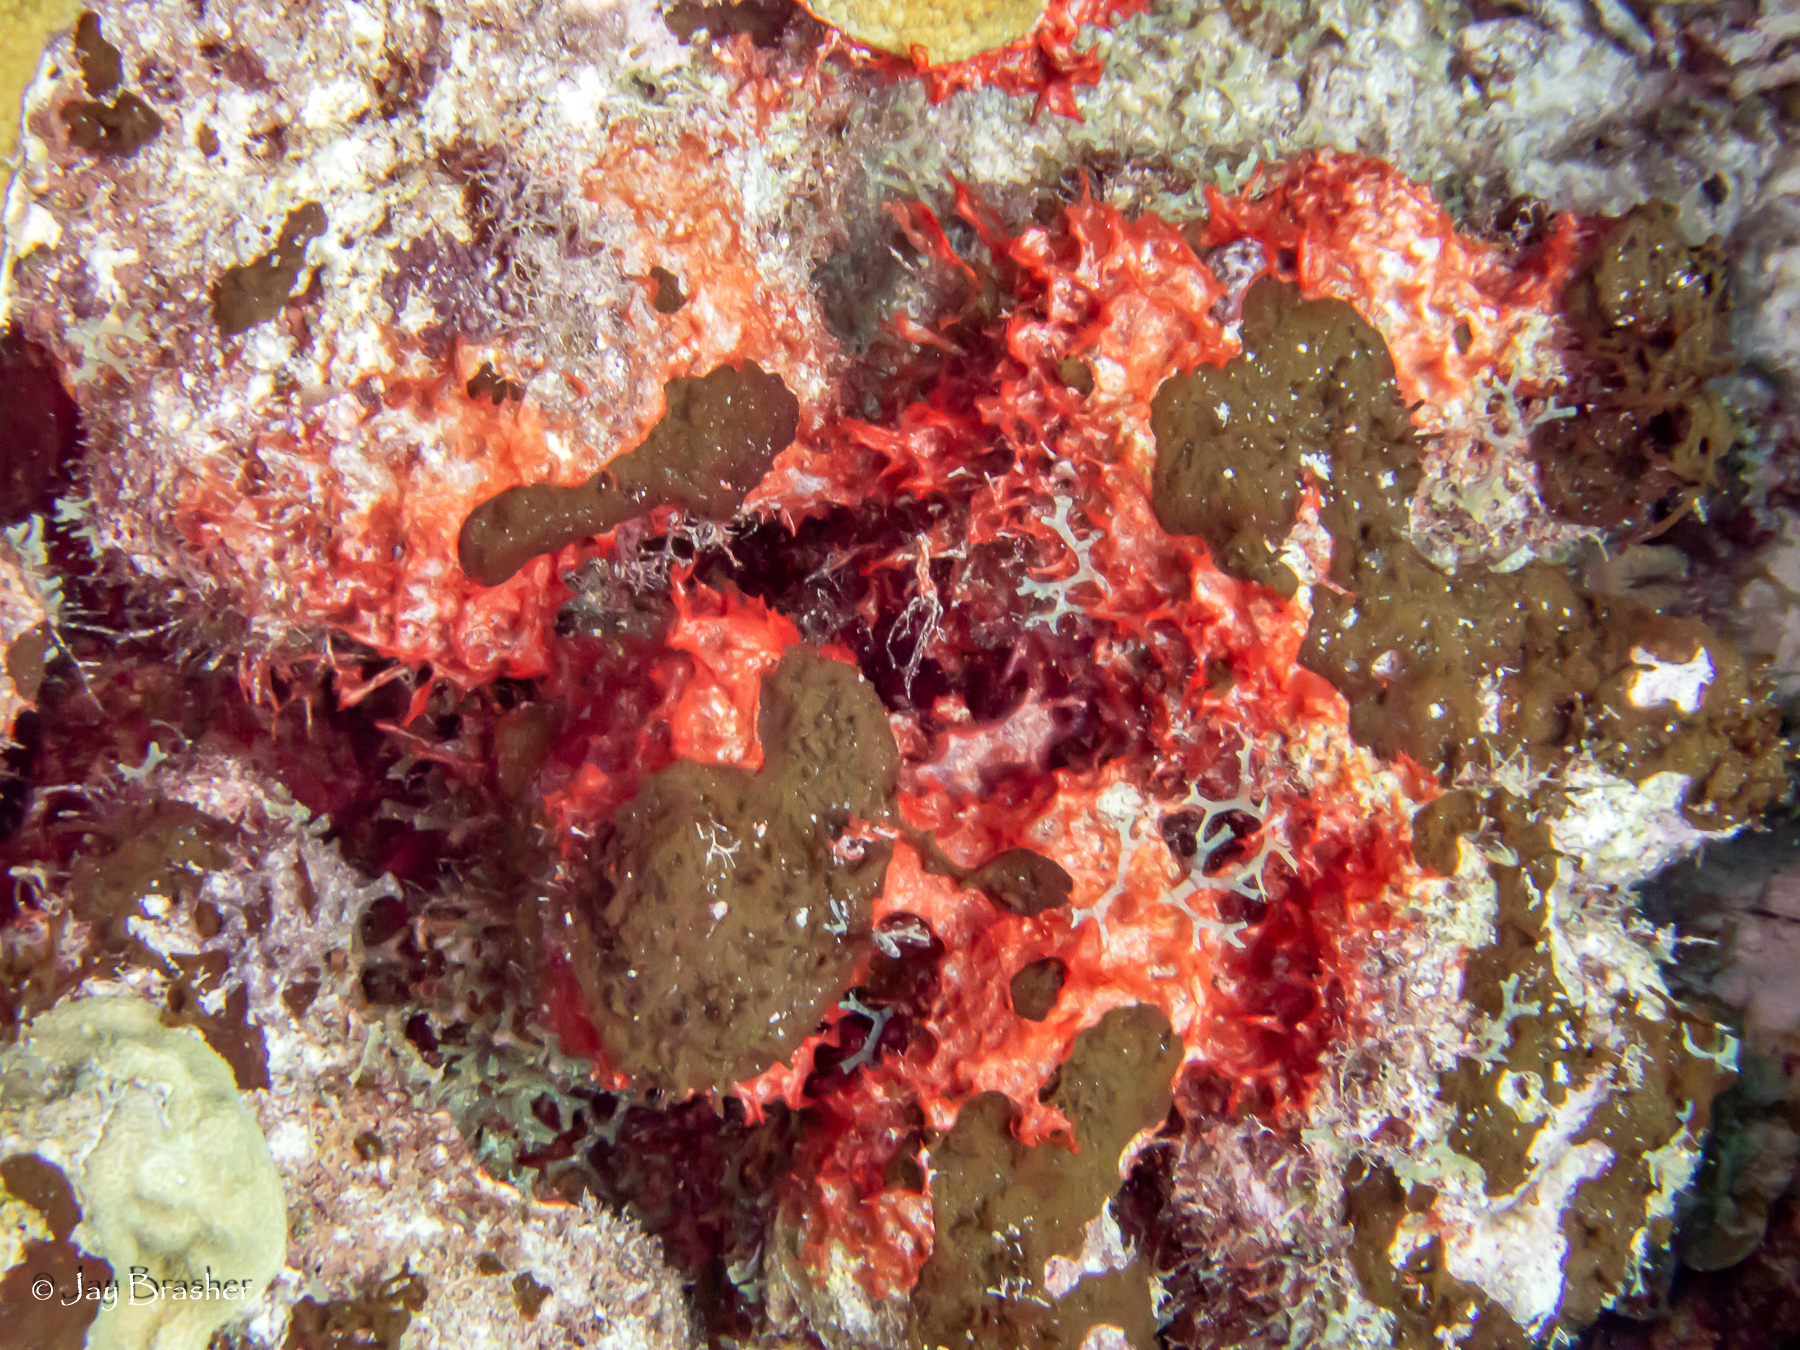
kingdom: Animalia
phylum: Porifera
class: Demospongiae
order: Bubarida
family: Dictyonellidae
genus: Dictyonella
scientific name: Dictyonella funicularis
